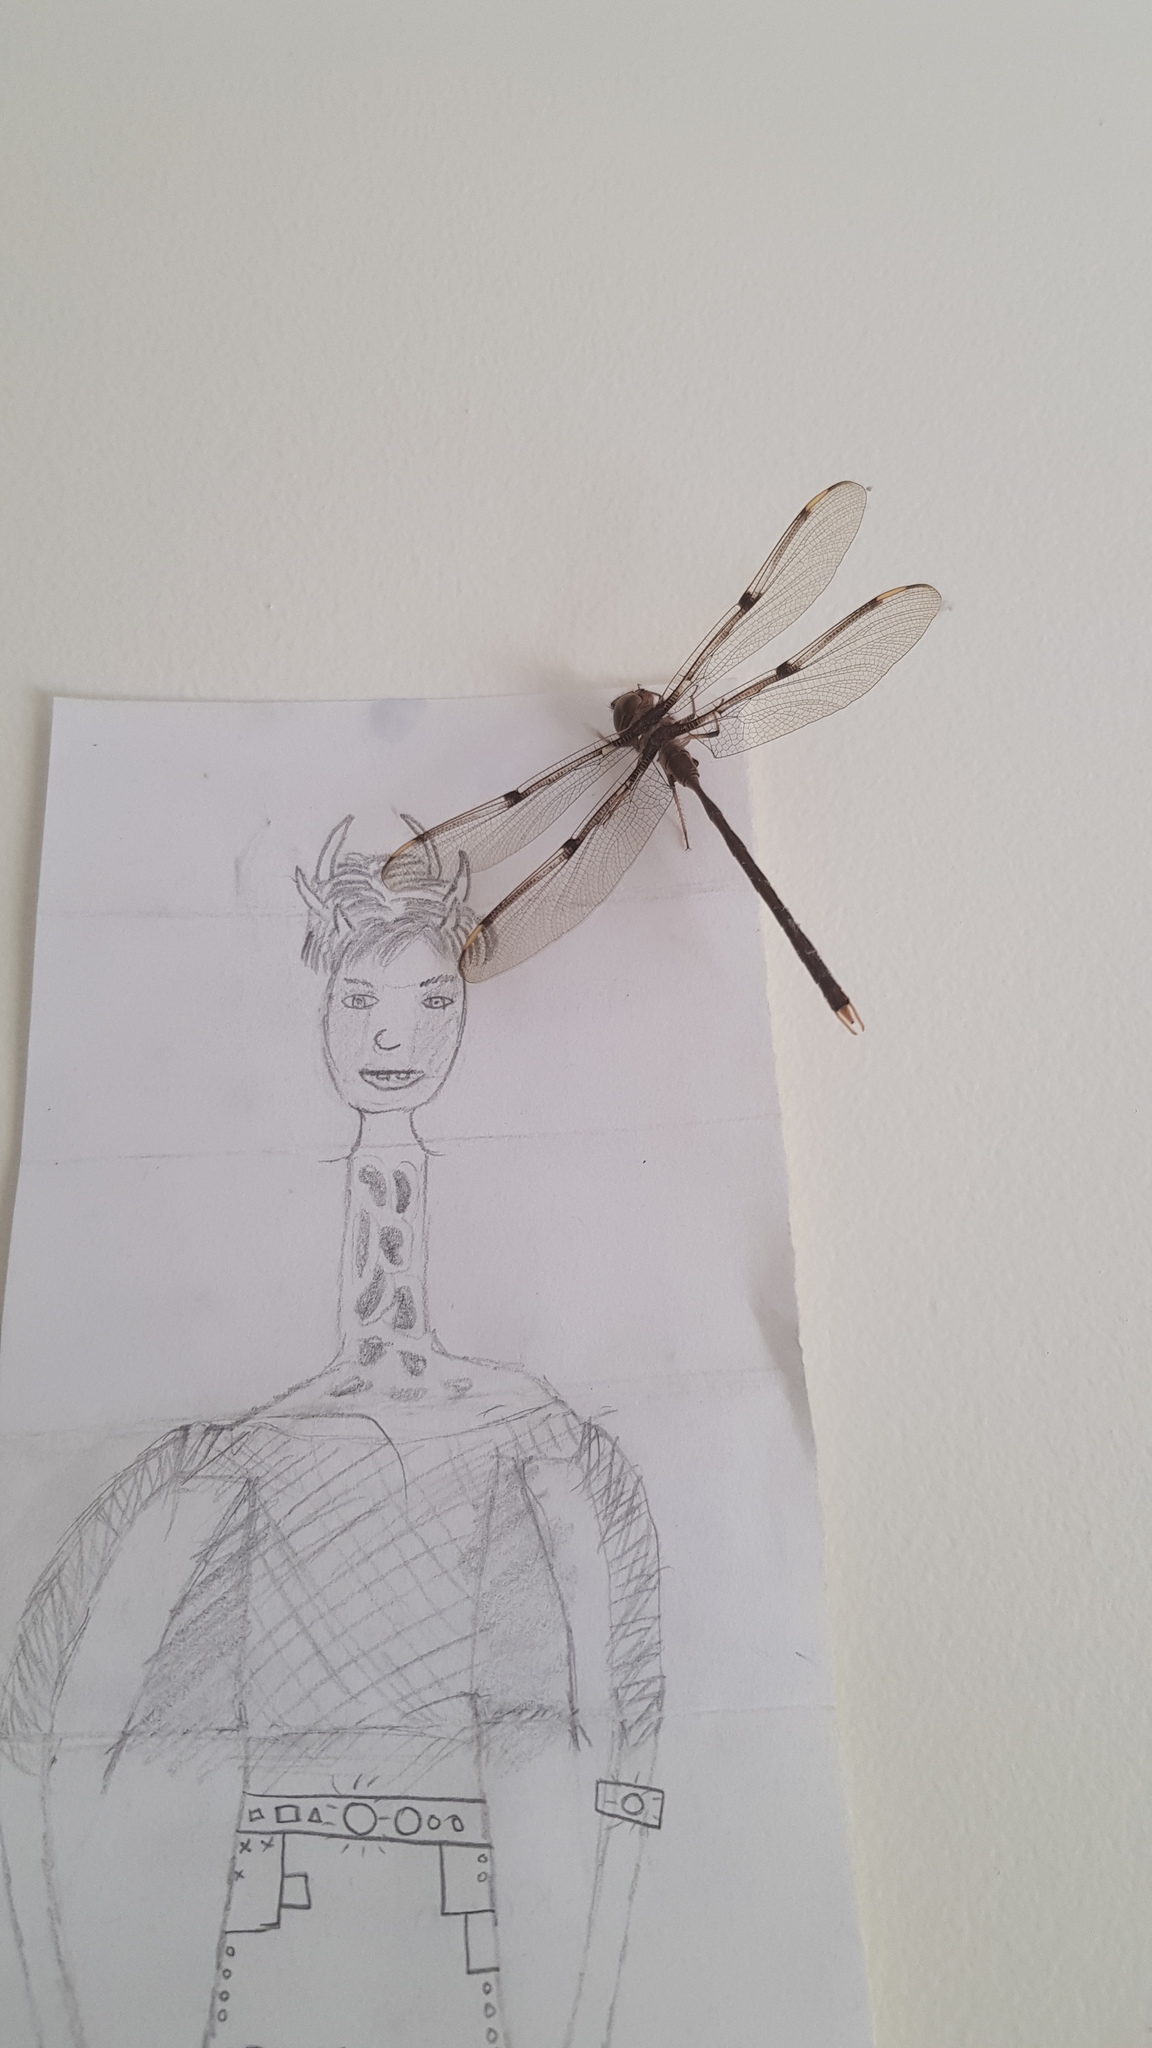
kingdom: Animalia
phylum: Arthropoda
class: Insecta
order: Odonata
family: Aeshnidae
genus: Telephlebia
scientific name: Telephlebia godeffroyi
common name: Eastern evening darner
